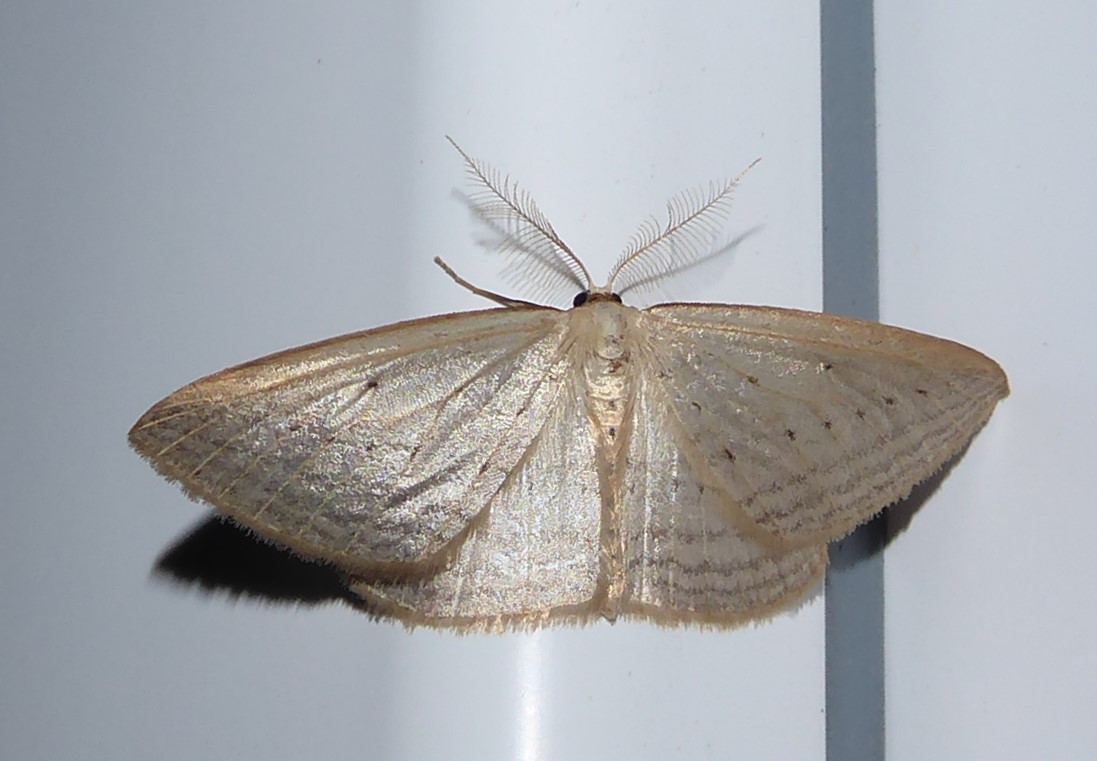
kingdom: Animalia
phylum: Arthropoda
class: Insecta
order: Lepidoptera
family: Geometridae
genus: Orthoclydon
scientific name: Orthoclydon praefectata
